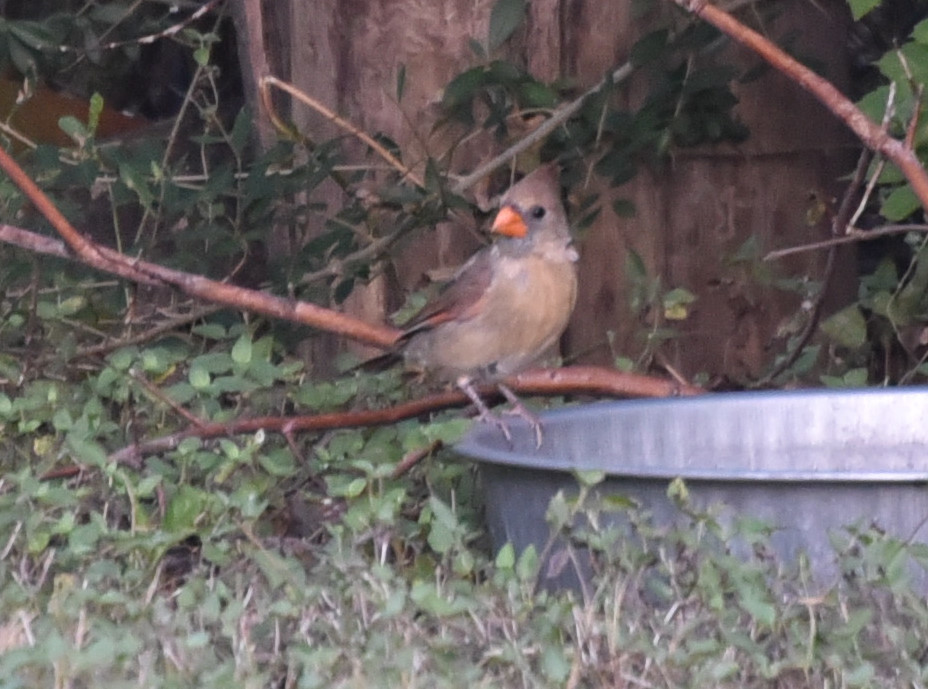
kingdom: Animalia
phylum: Chordata
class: Aves
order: Passeriformes
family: Cardinalidae
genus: Cardinalis
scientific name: Cardinalis cardinalis
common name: Northern cardinal
